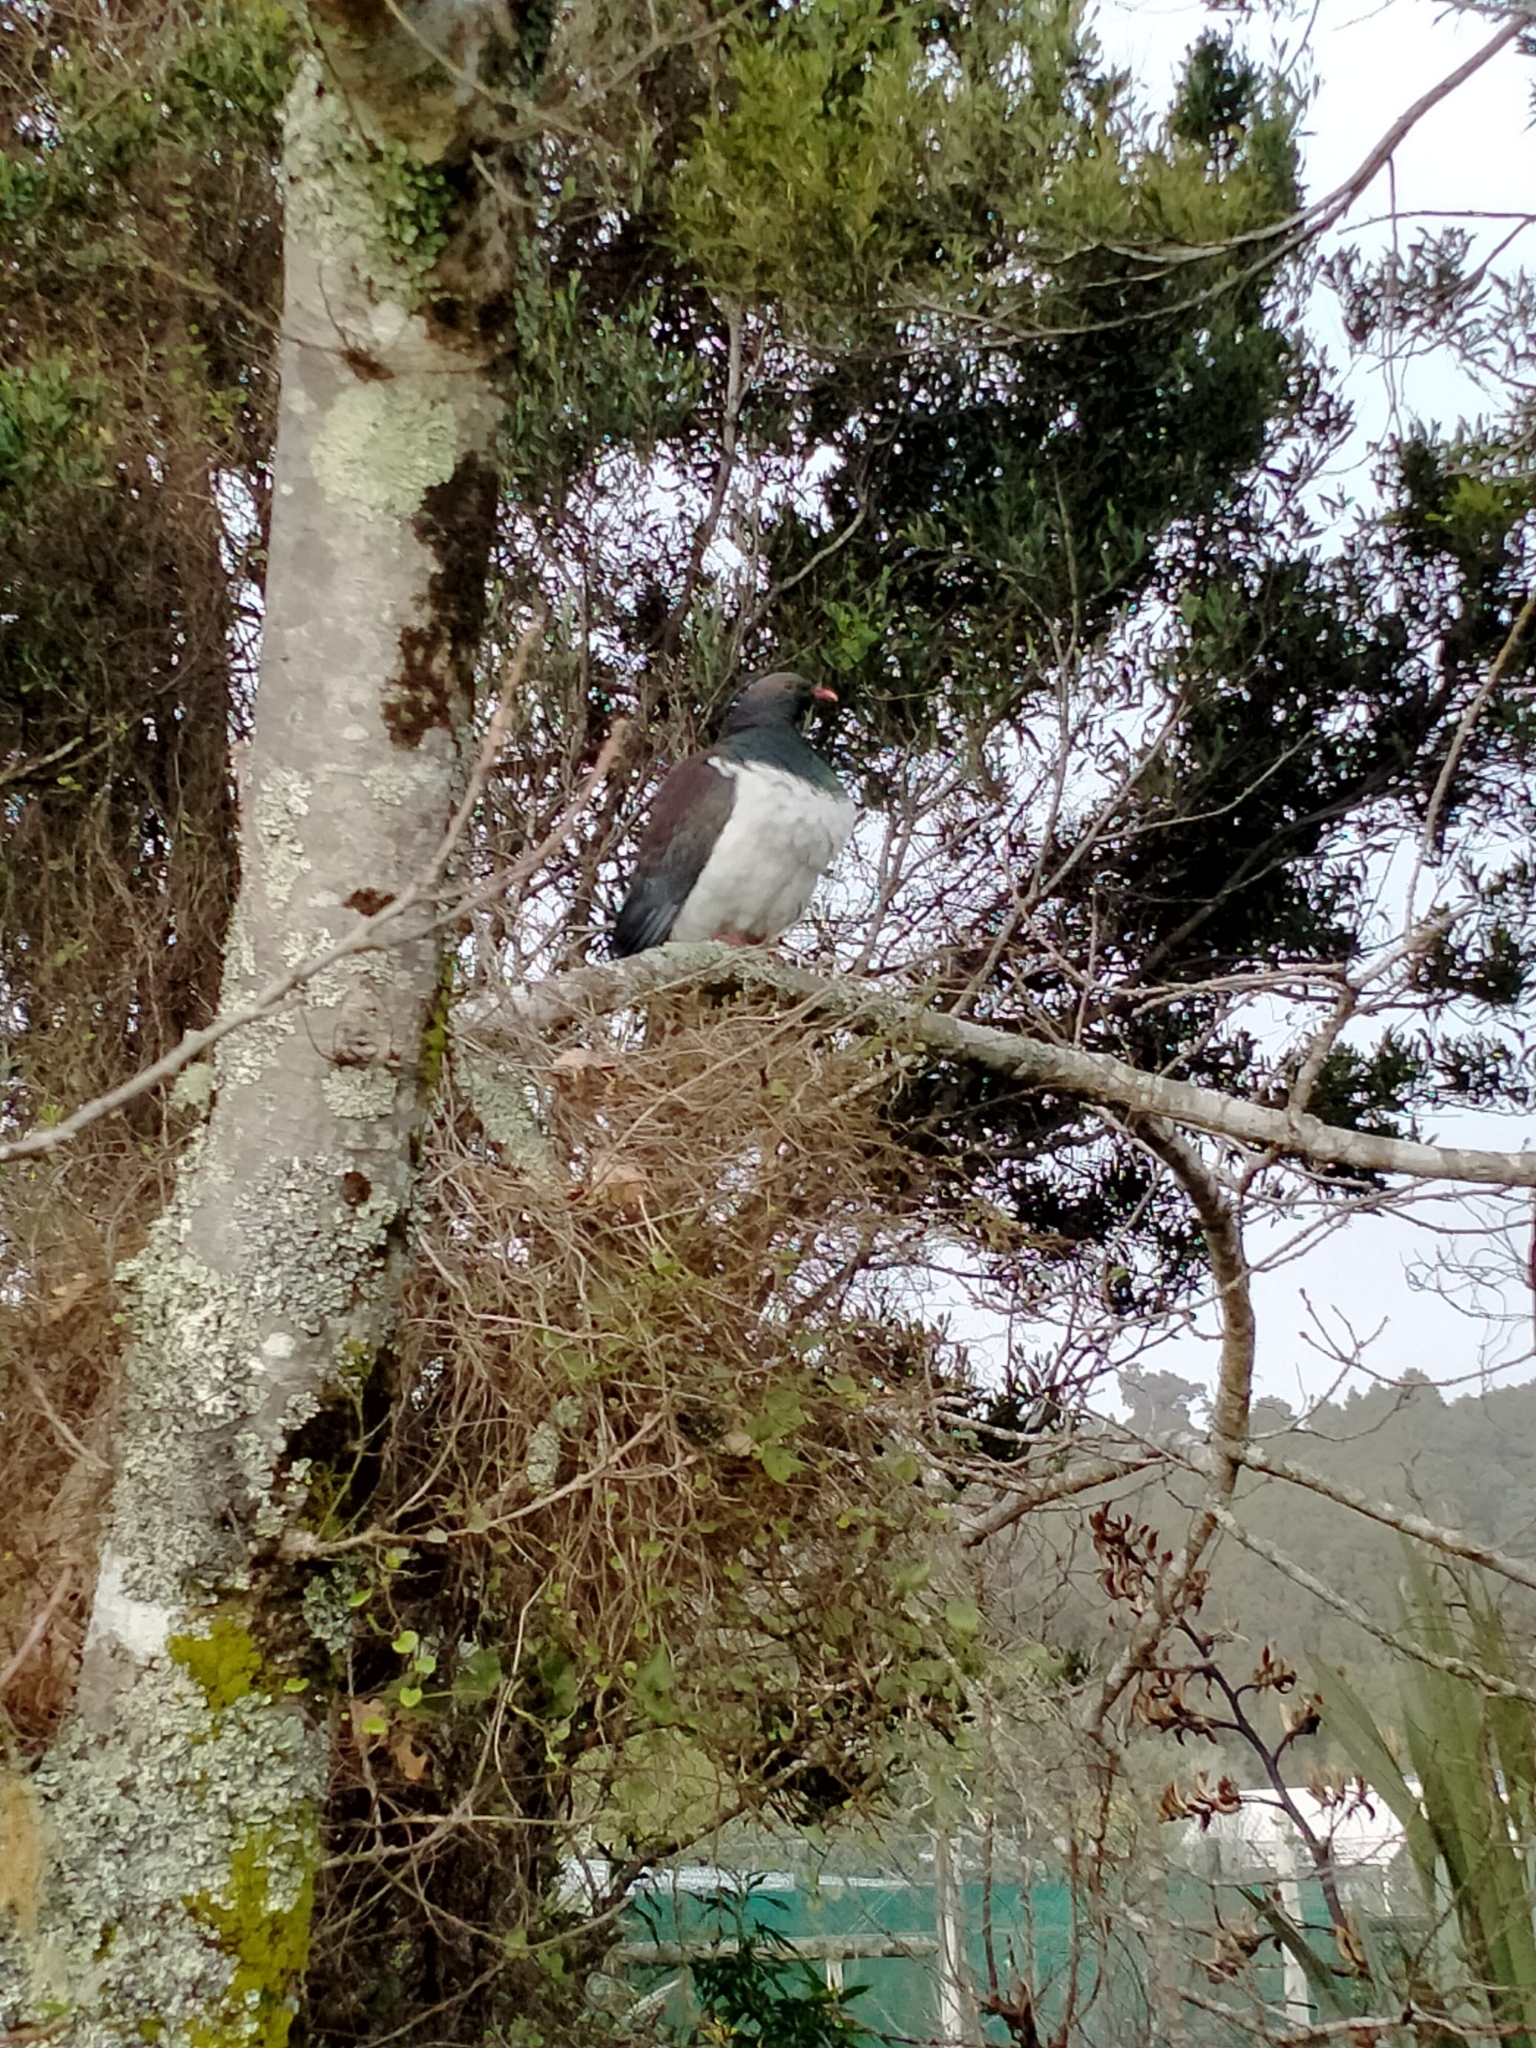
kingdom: Animalia
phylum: Chordata
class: Aves
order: Columbiformes
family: Columbidae
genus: Hemiphaga
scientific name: Hemiphaga novaeseelandiae
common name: New zealand pigeon
